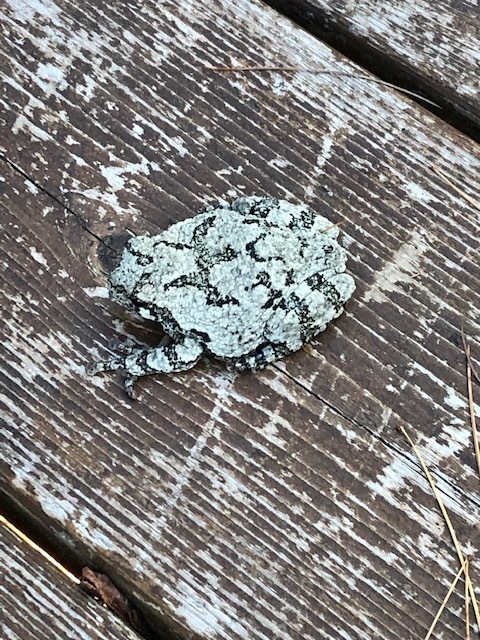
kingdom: Animalia
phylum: Chordata
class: Amphibia
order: Anura
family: Hylidae
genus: Dryophytes
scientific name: Dryophytes versicolor
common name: Gray treefrog
